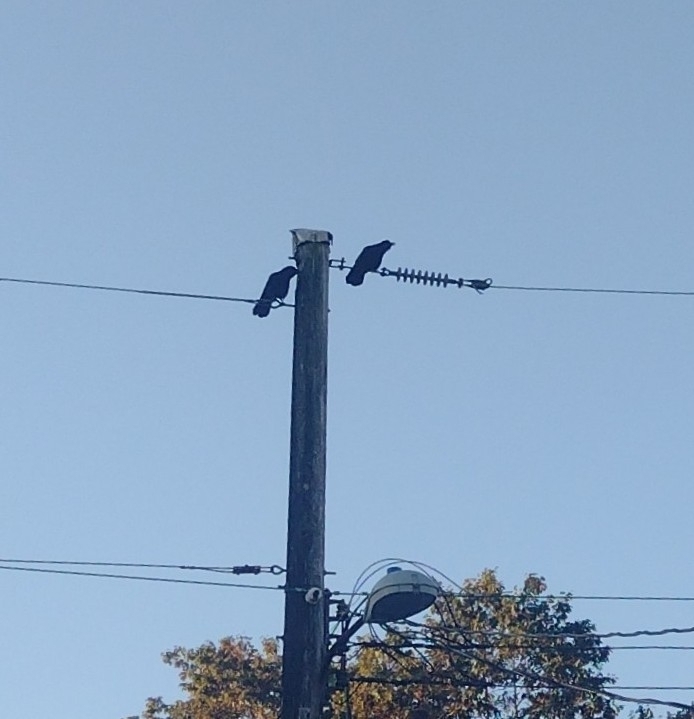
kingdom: Animalia
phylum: Chordata
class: Aves
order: Passeriformes
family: Corvidae
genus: Corvus
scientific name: Corvus brachyrhynchos
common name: American crow
